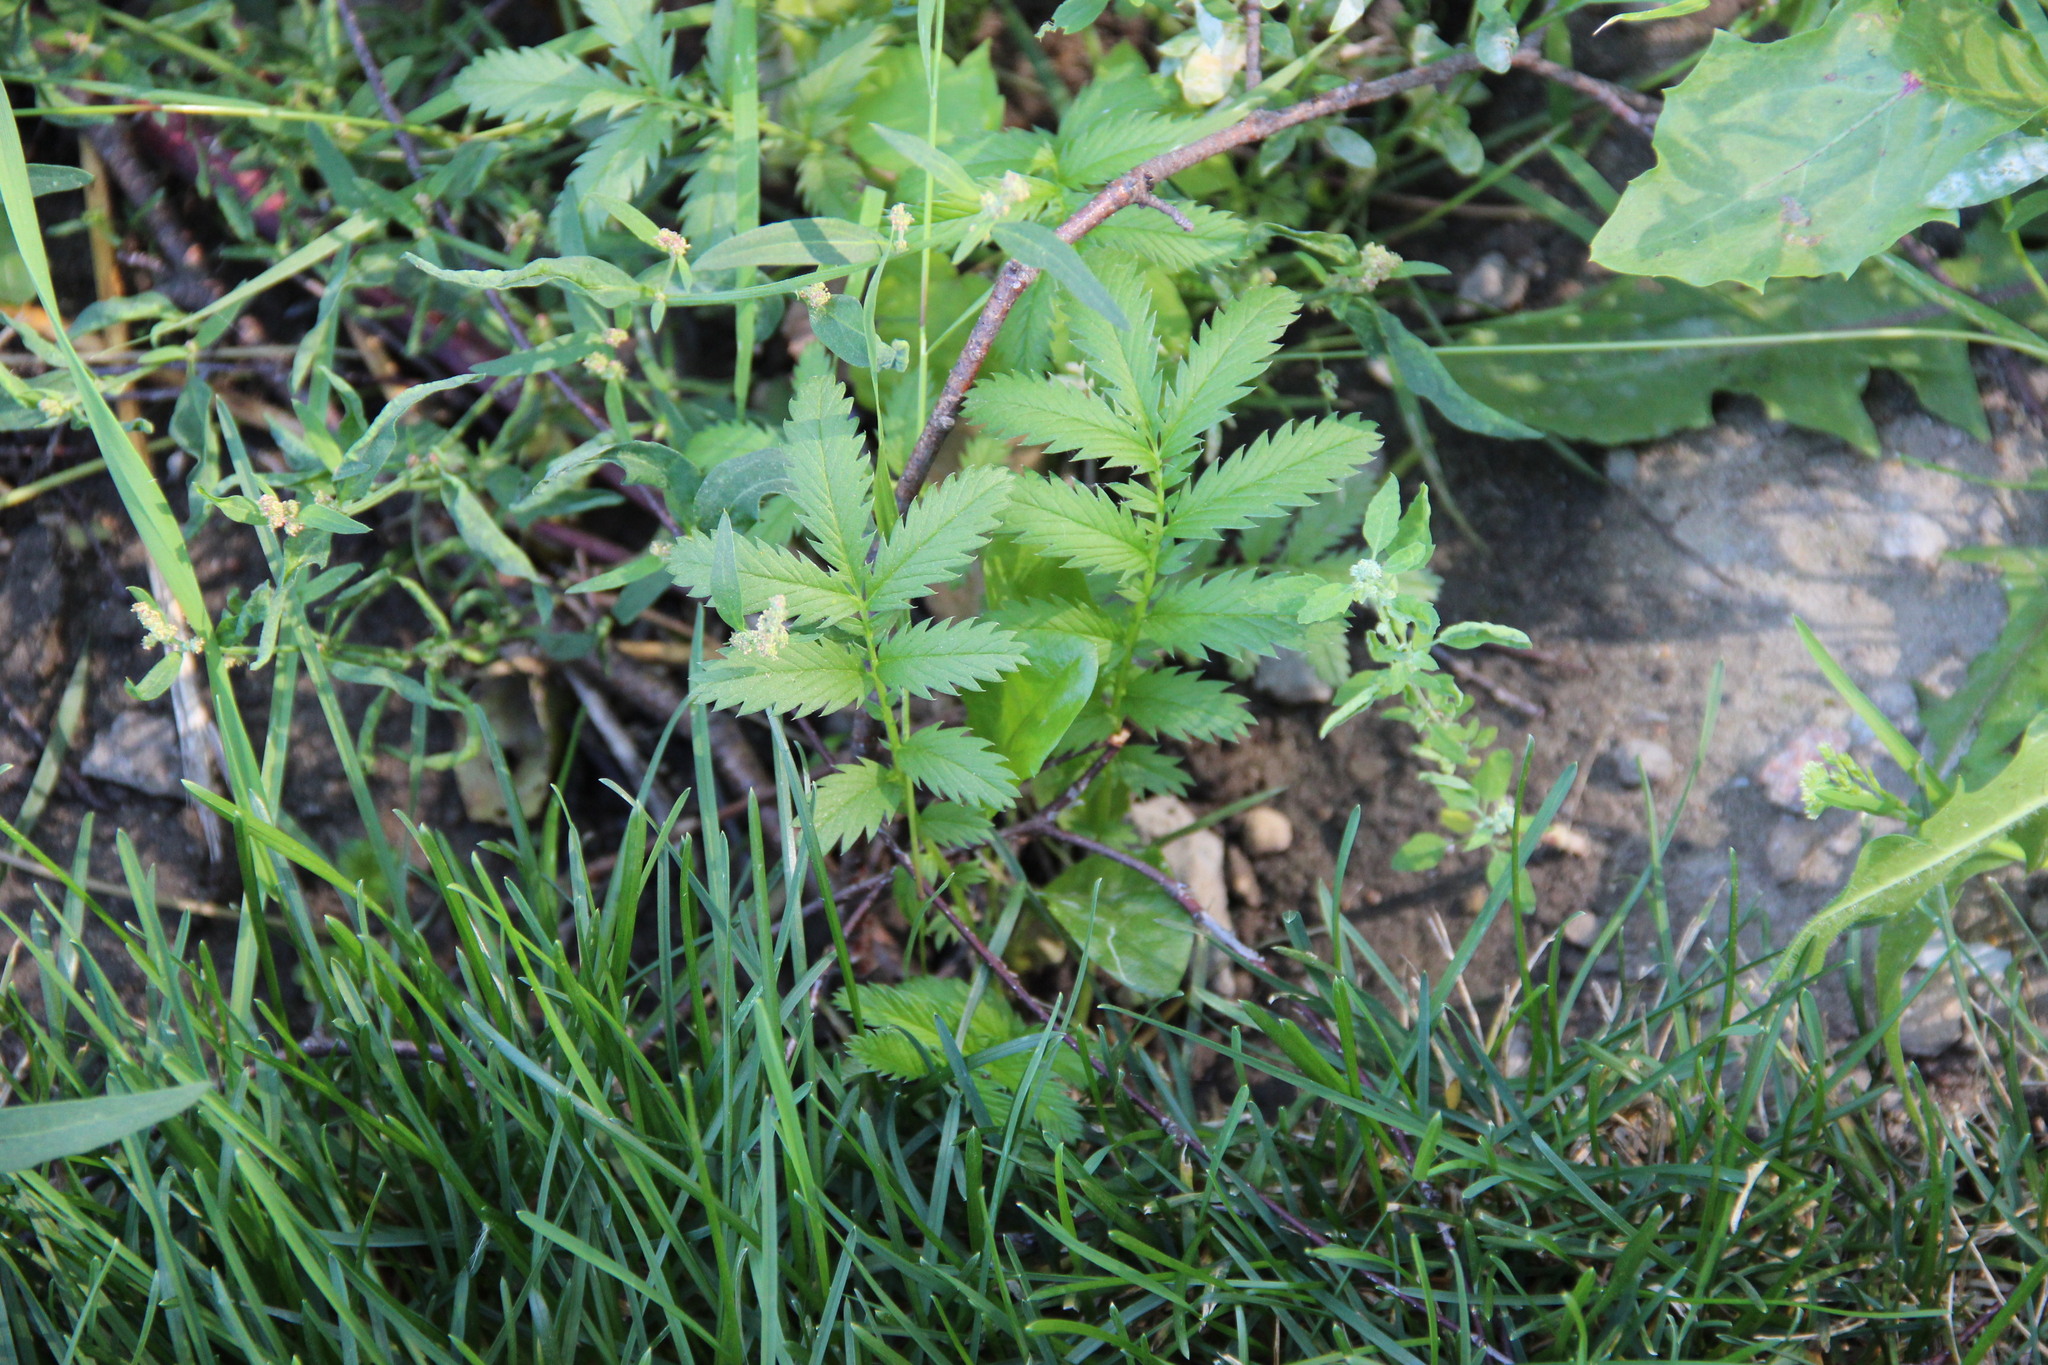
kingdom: Plantae
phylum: Tracheophyta
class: Magnoliopsida
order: Rosales
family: Rosaceae
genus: Argentina
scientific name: Argentina anserina
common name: Common silverweed
